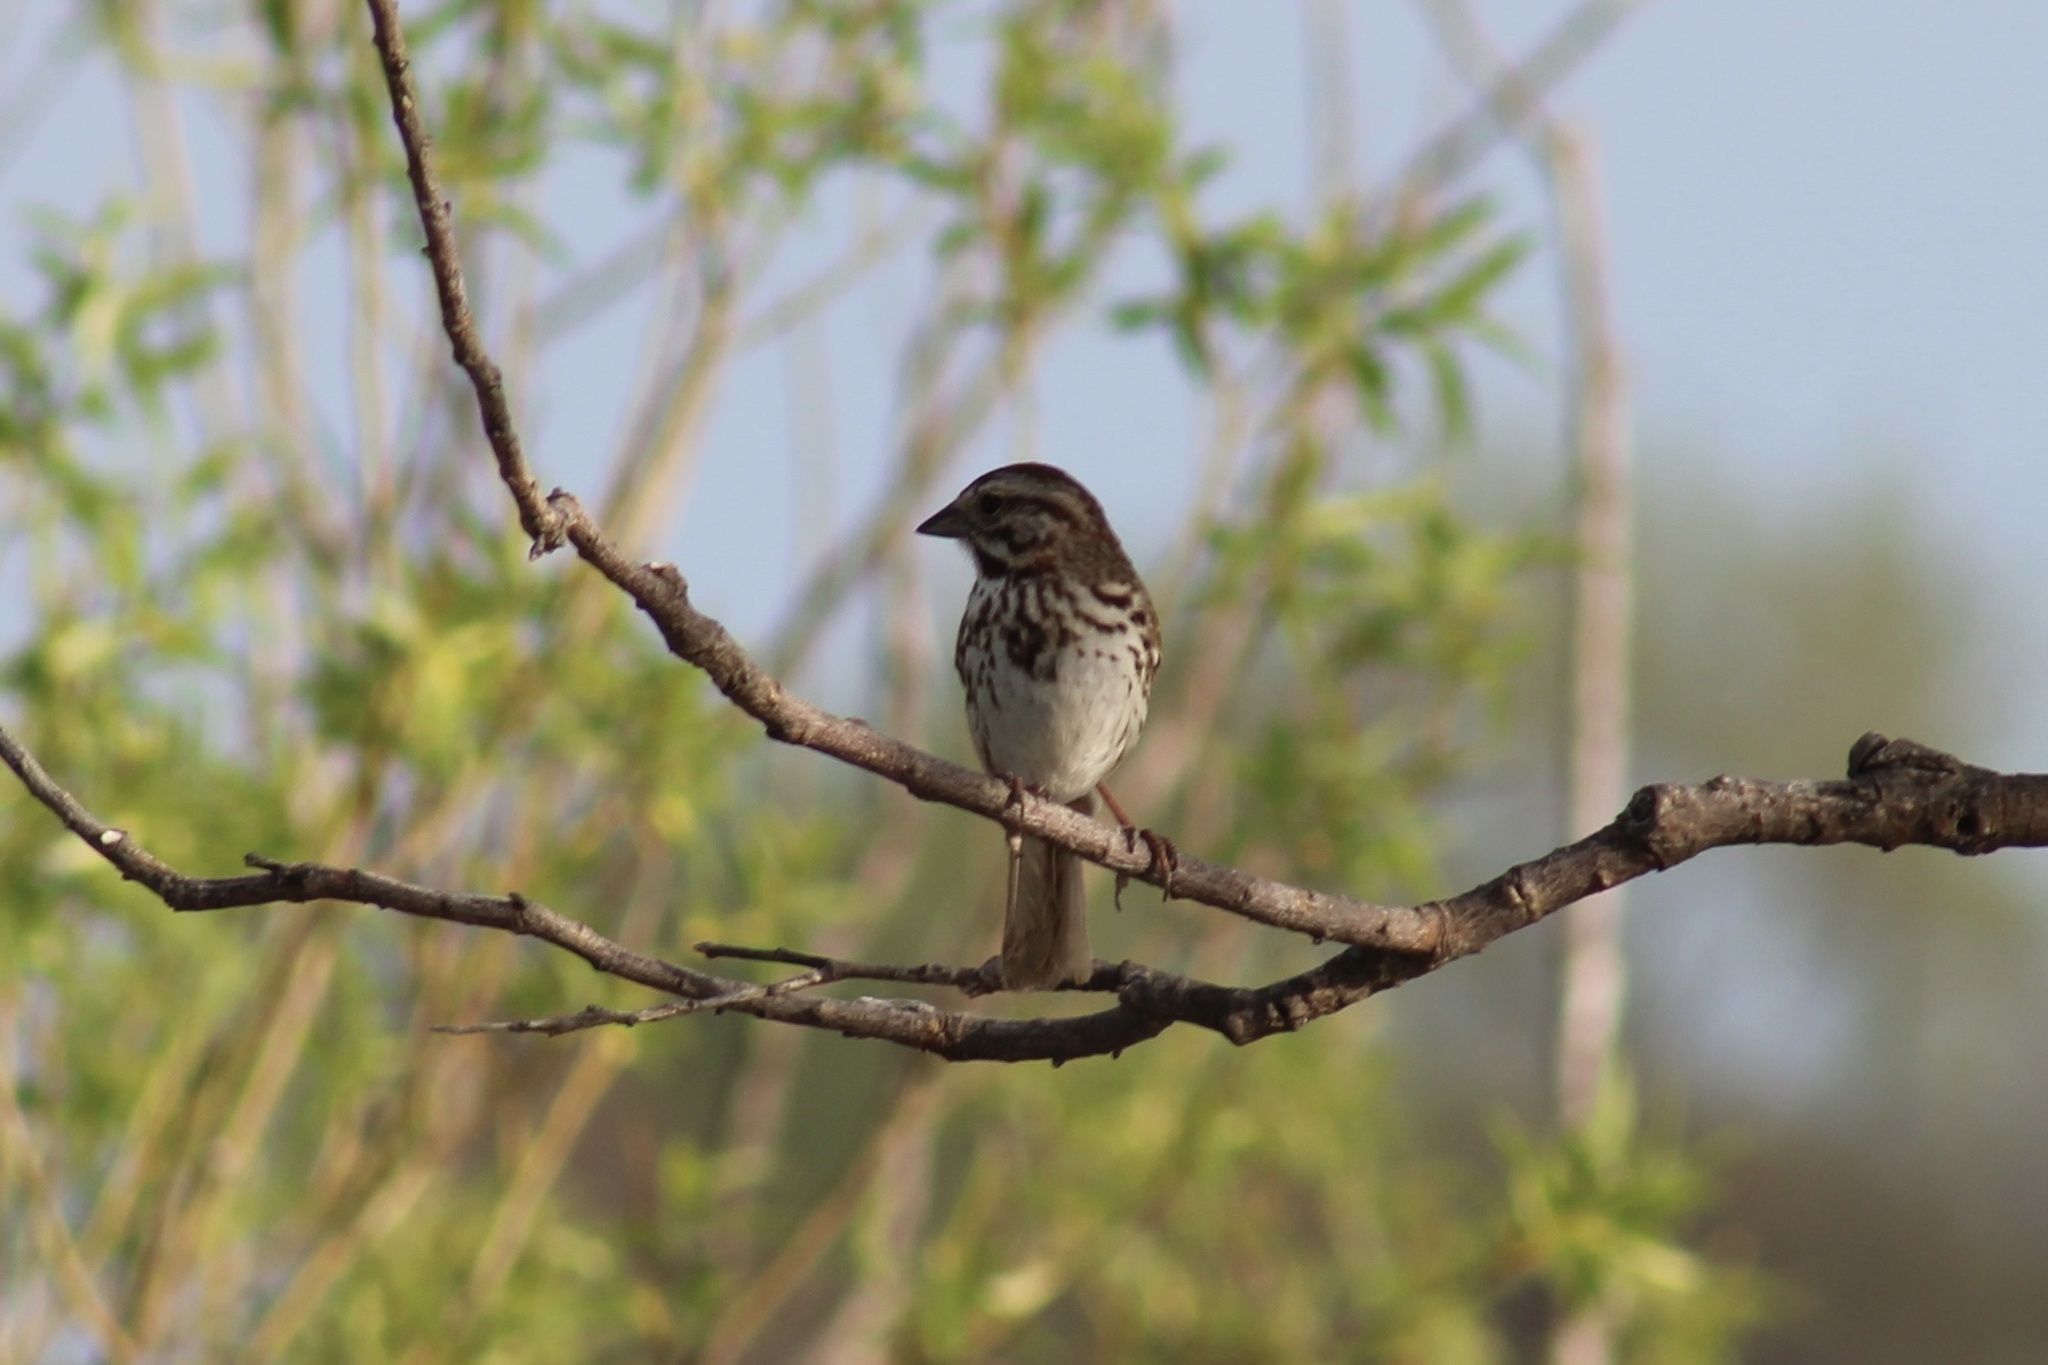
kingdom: Animalia
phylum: Chordata
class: Aves
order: Passeriformes
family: Passerellidae
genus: Melospiza
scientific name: Melospiza melodia
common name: Song sparrow
